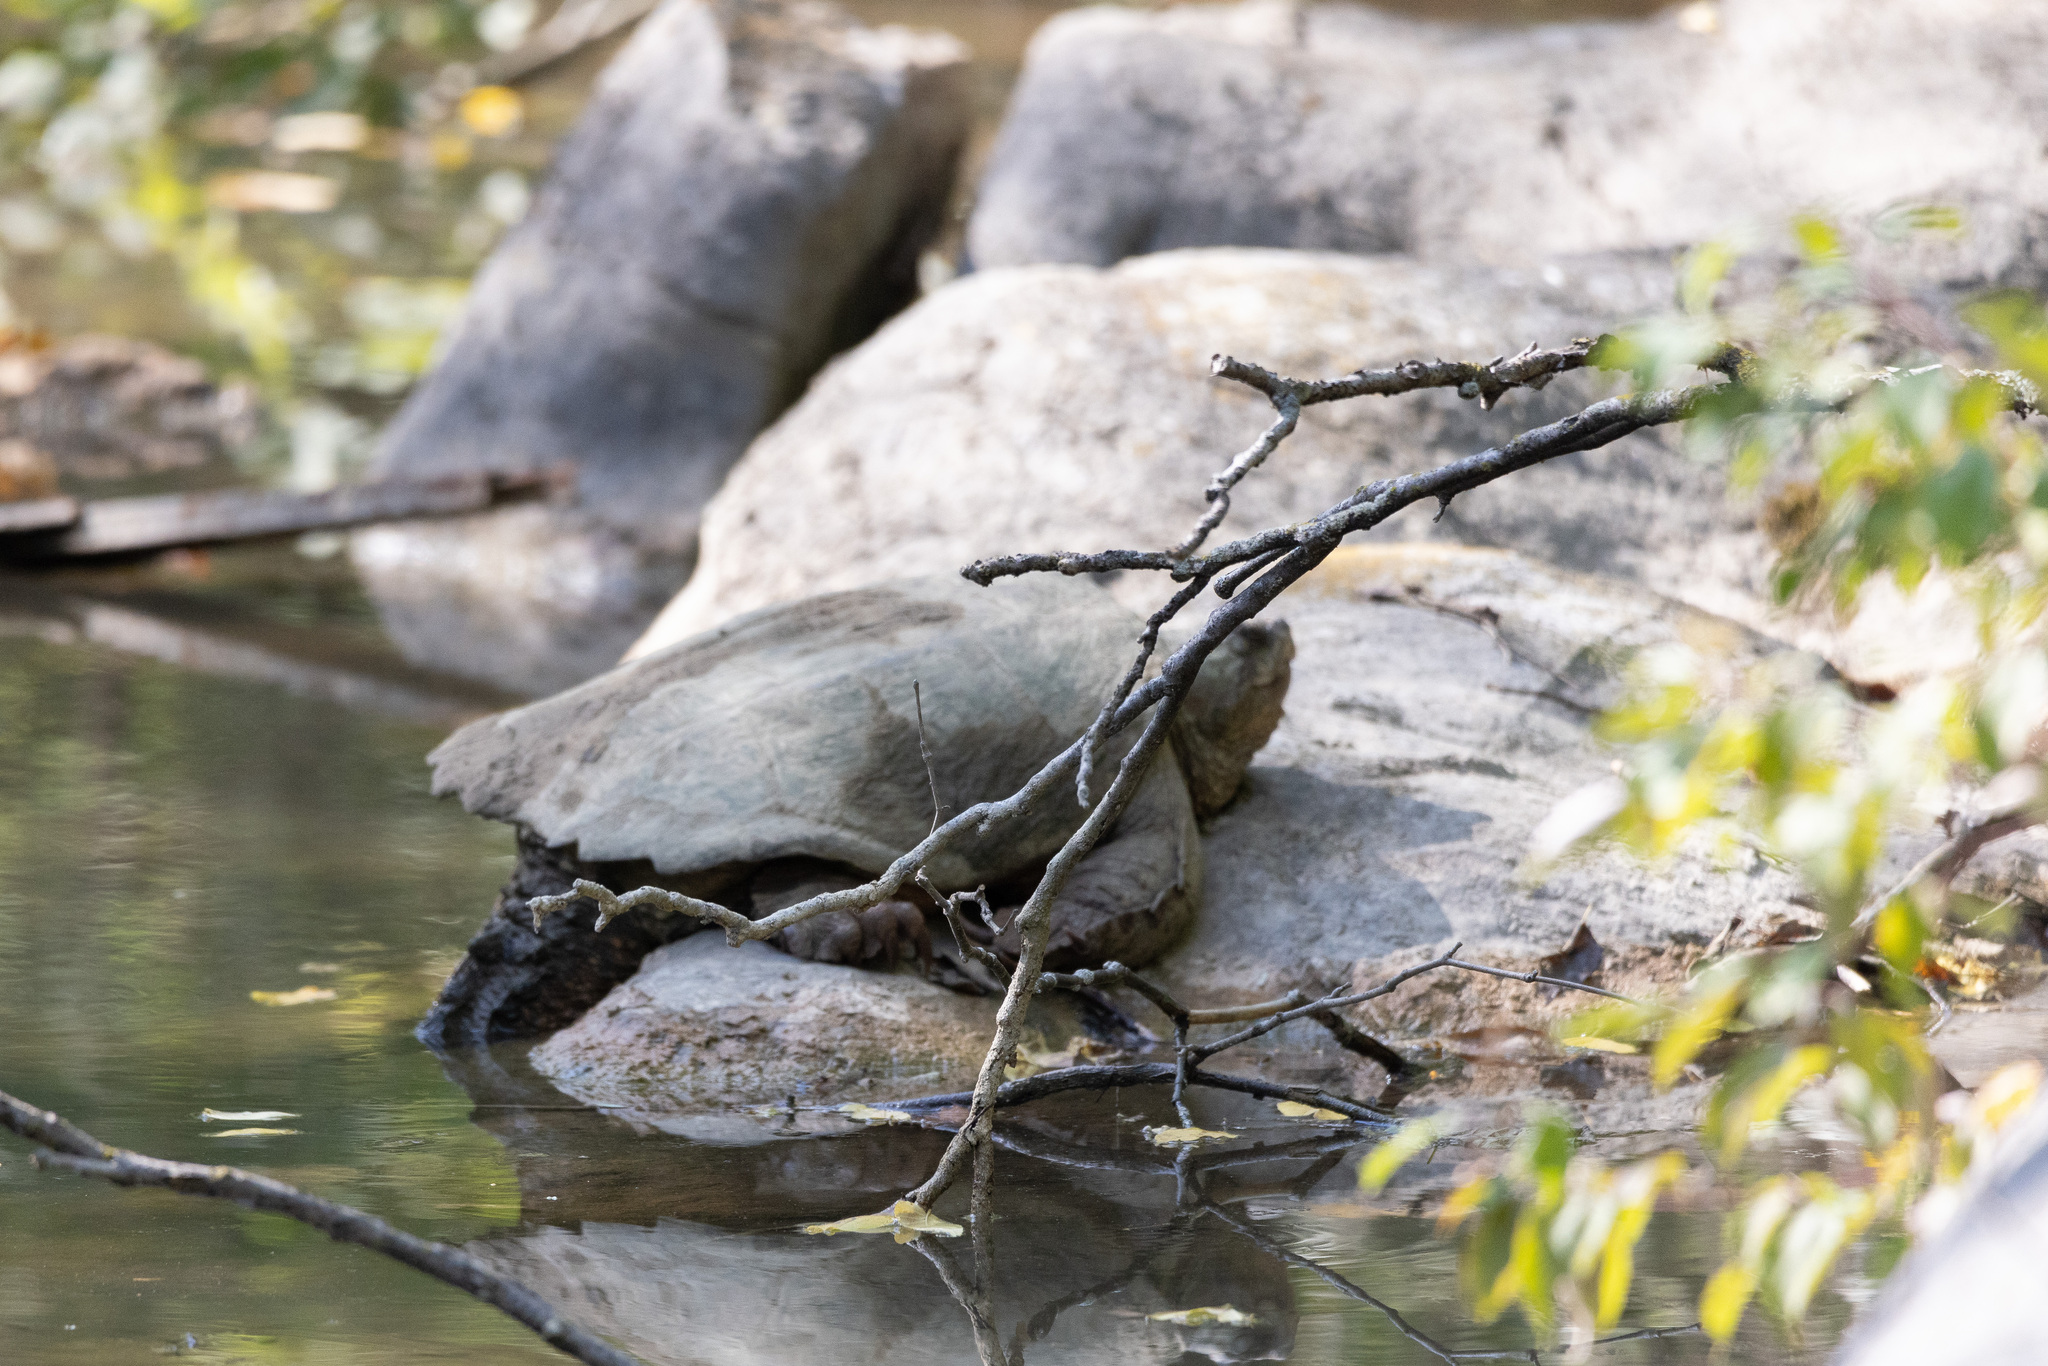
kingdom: Animalia
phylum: Chordata
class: Testudines
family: Chelydridae
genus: Chelydra
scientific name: Chelydra serpentina
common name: Common snapping turtle
